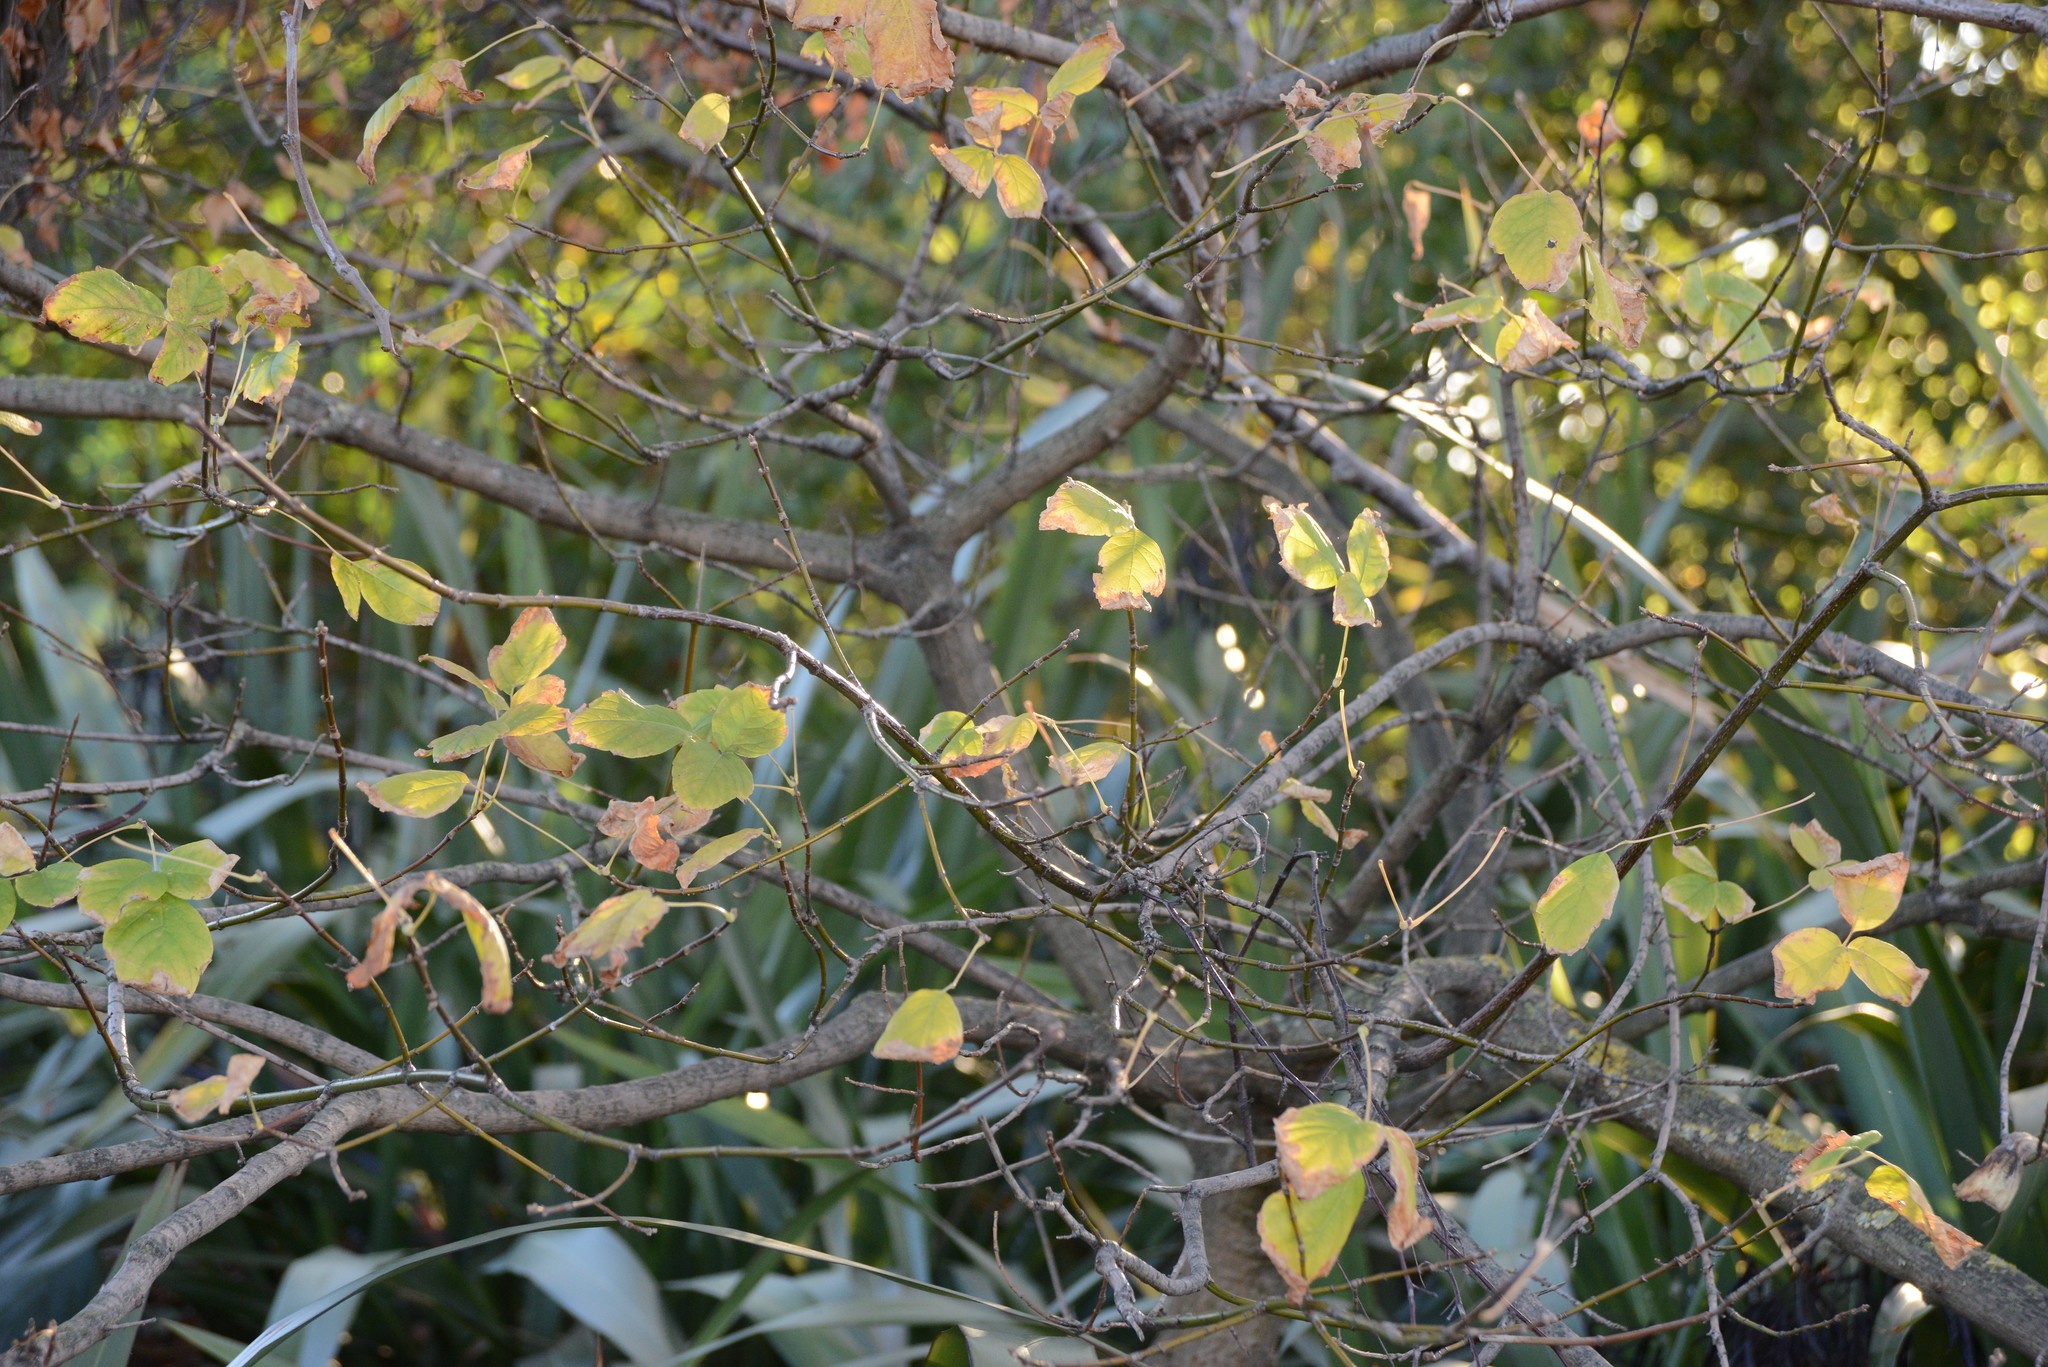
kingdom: Plantae
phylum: Tracheophyta
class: Magnoliopsida
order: Sapindales
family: Sapindaceae
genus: Acer
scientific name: Acer negundo
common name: Ashleaf maple
